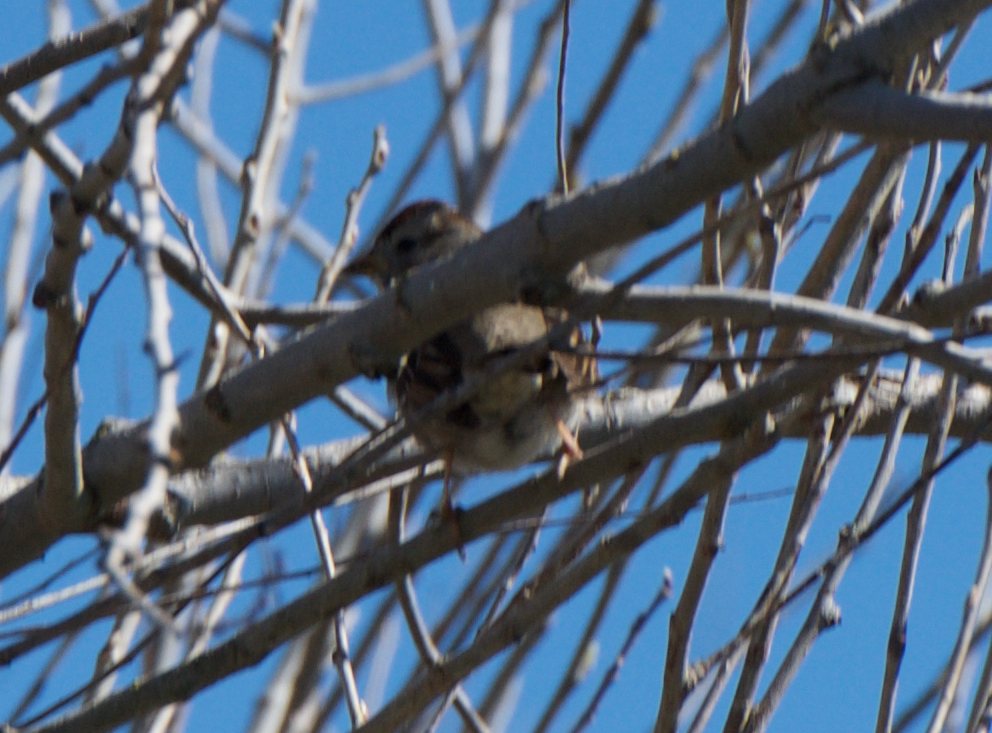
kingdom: Animalia
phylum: Chordata
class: Aves
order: Passeriformes
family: Passerellidae
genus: Zonotrichia
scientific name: Zonotrichia leucophrys
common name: White-crowned sparrow
